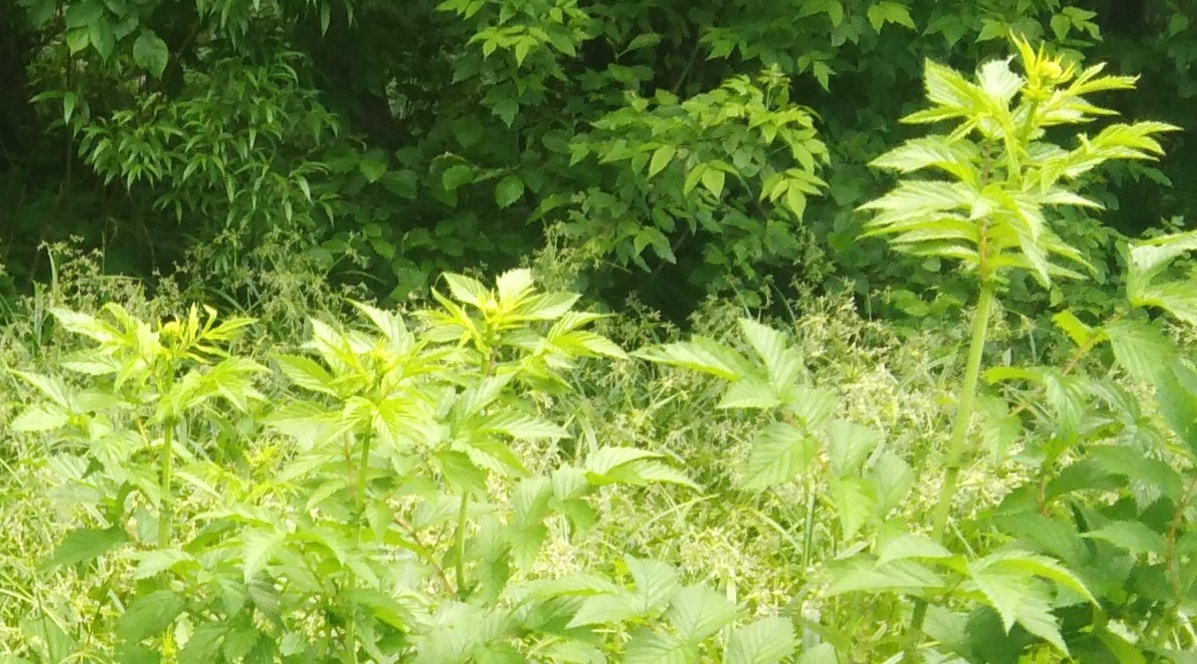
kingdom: Plantae
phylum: Tracheophyta
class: Magnoliopsida
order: Rosales
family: Rosaceae
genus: Filipendula
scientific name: Filipendula ulmaria
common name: Meadowsweet
